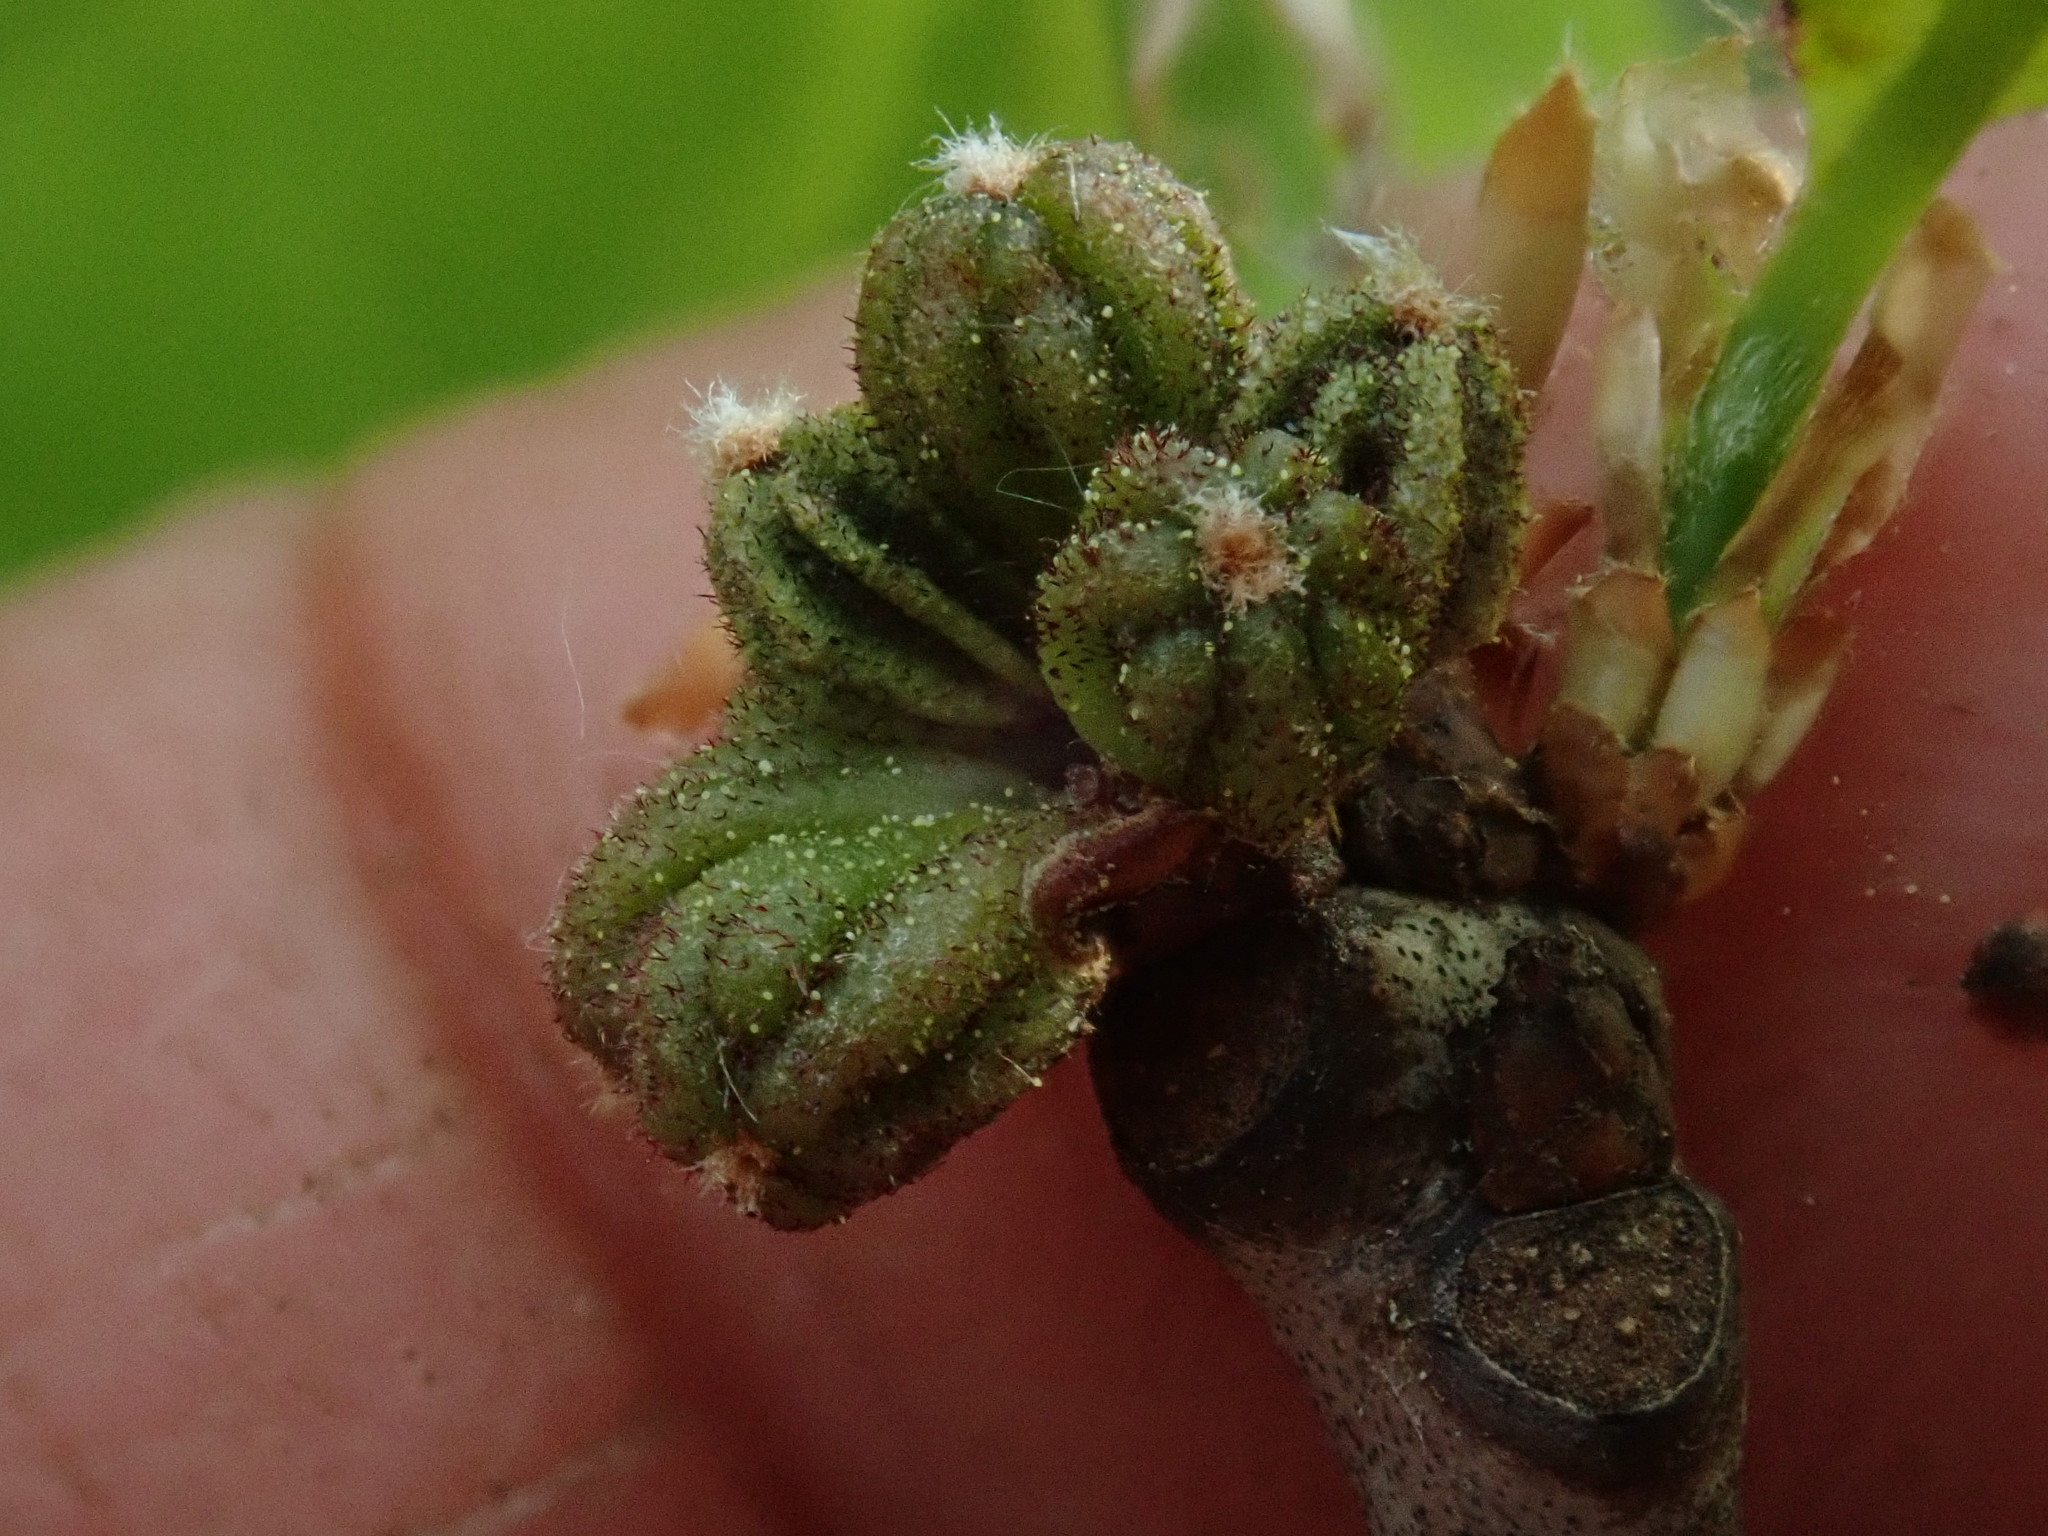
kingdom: Animalia
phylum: Arthropoda
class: Insecta
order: Hymenoptera
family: Cynipidae
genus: Andricus
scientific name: Andricus coronatus
